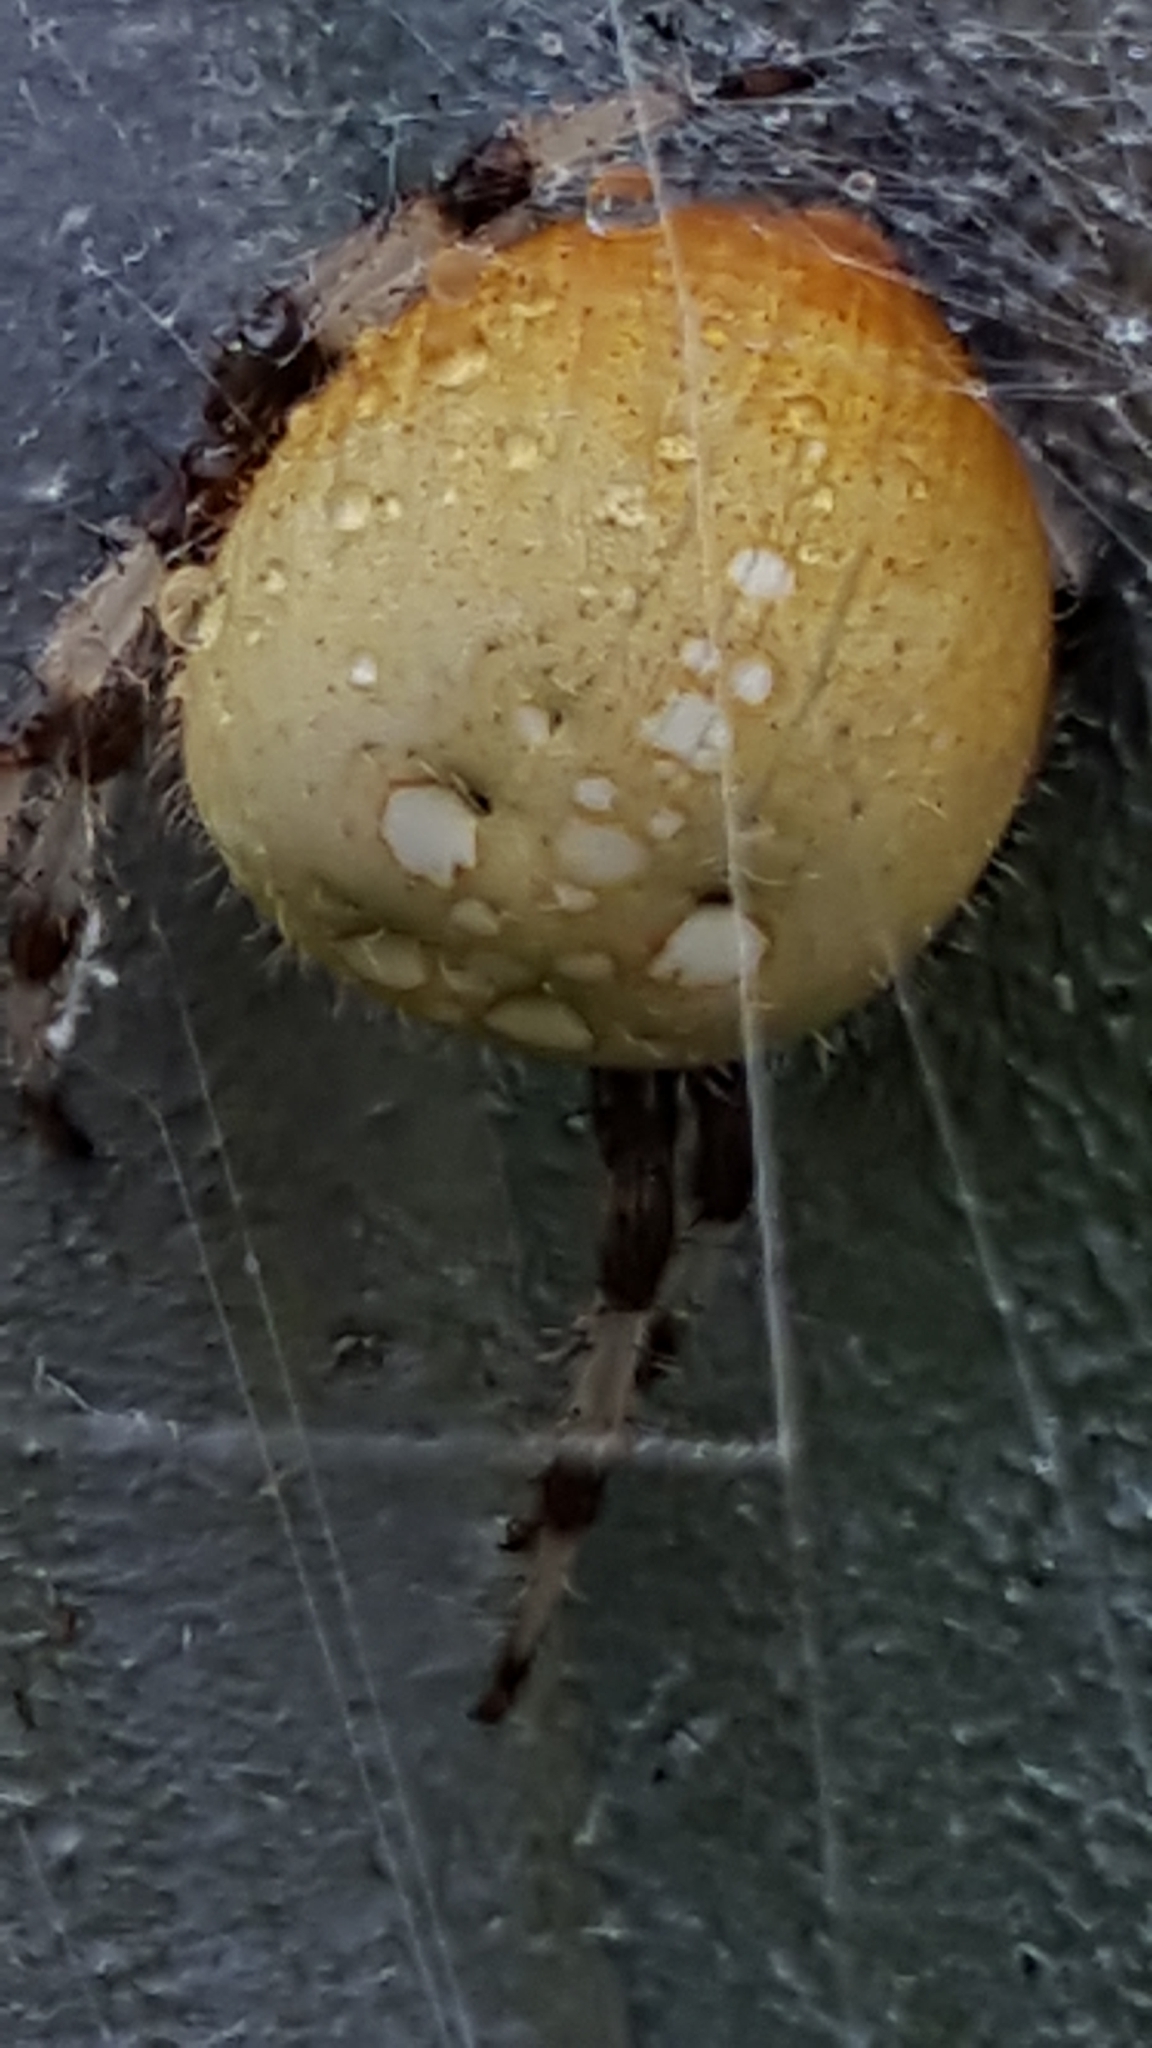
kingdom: Animalia
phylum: Arthropoda
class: Arachnida
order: Araneae
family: Araneidae
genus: Araneus
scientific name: Araneus trifolium
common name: Shamrock orbweaver
